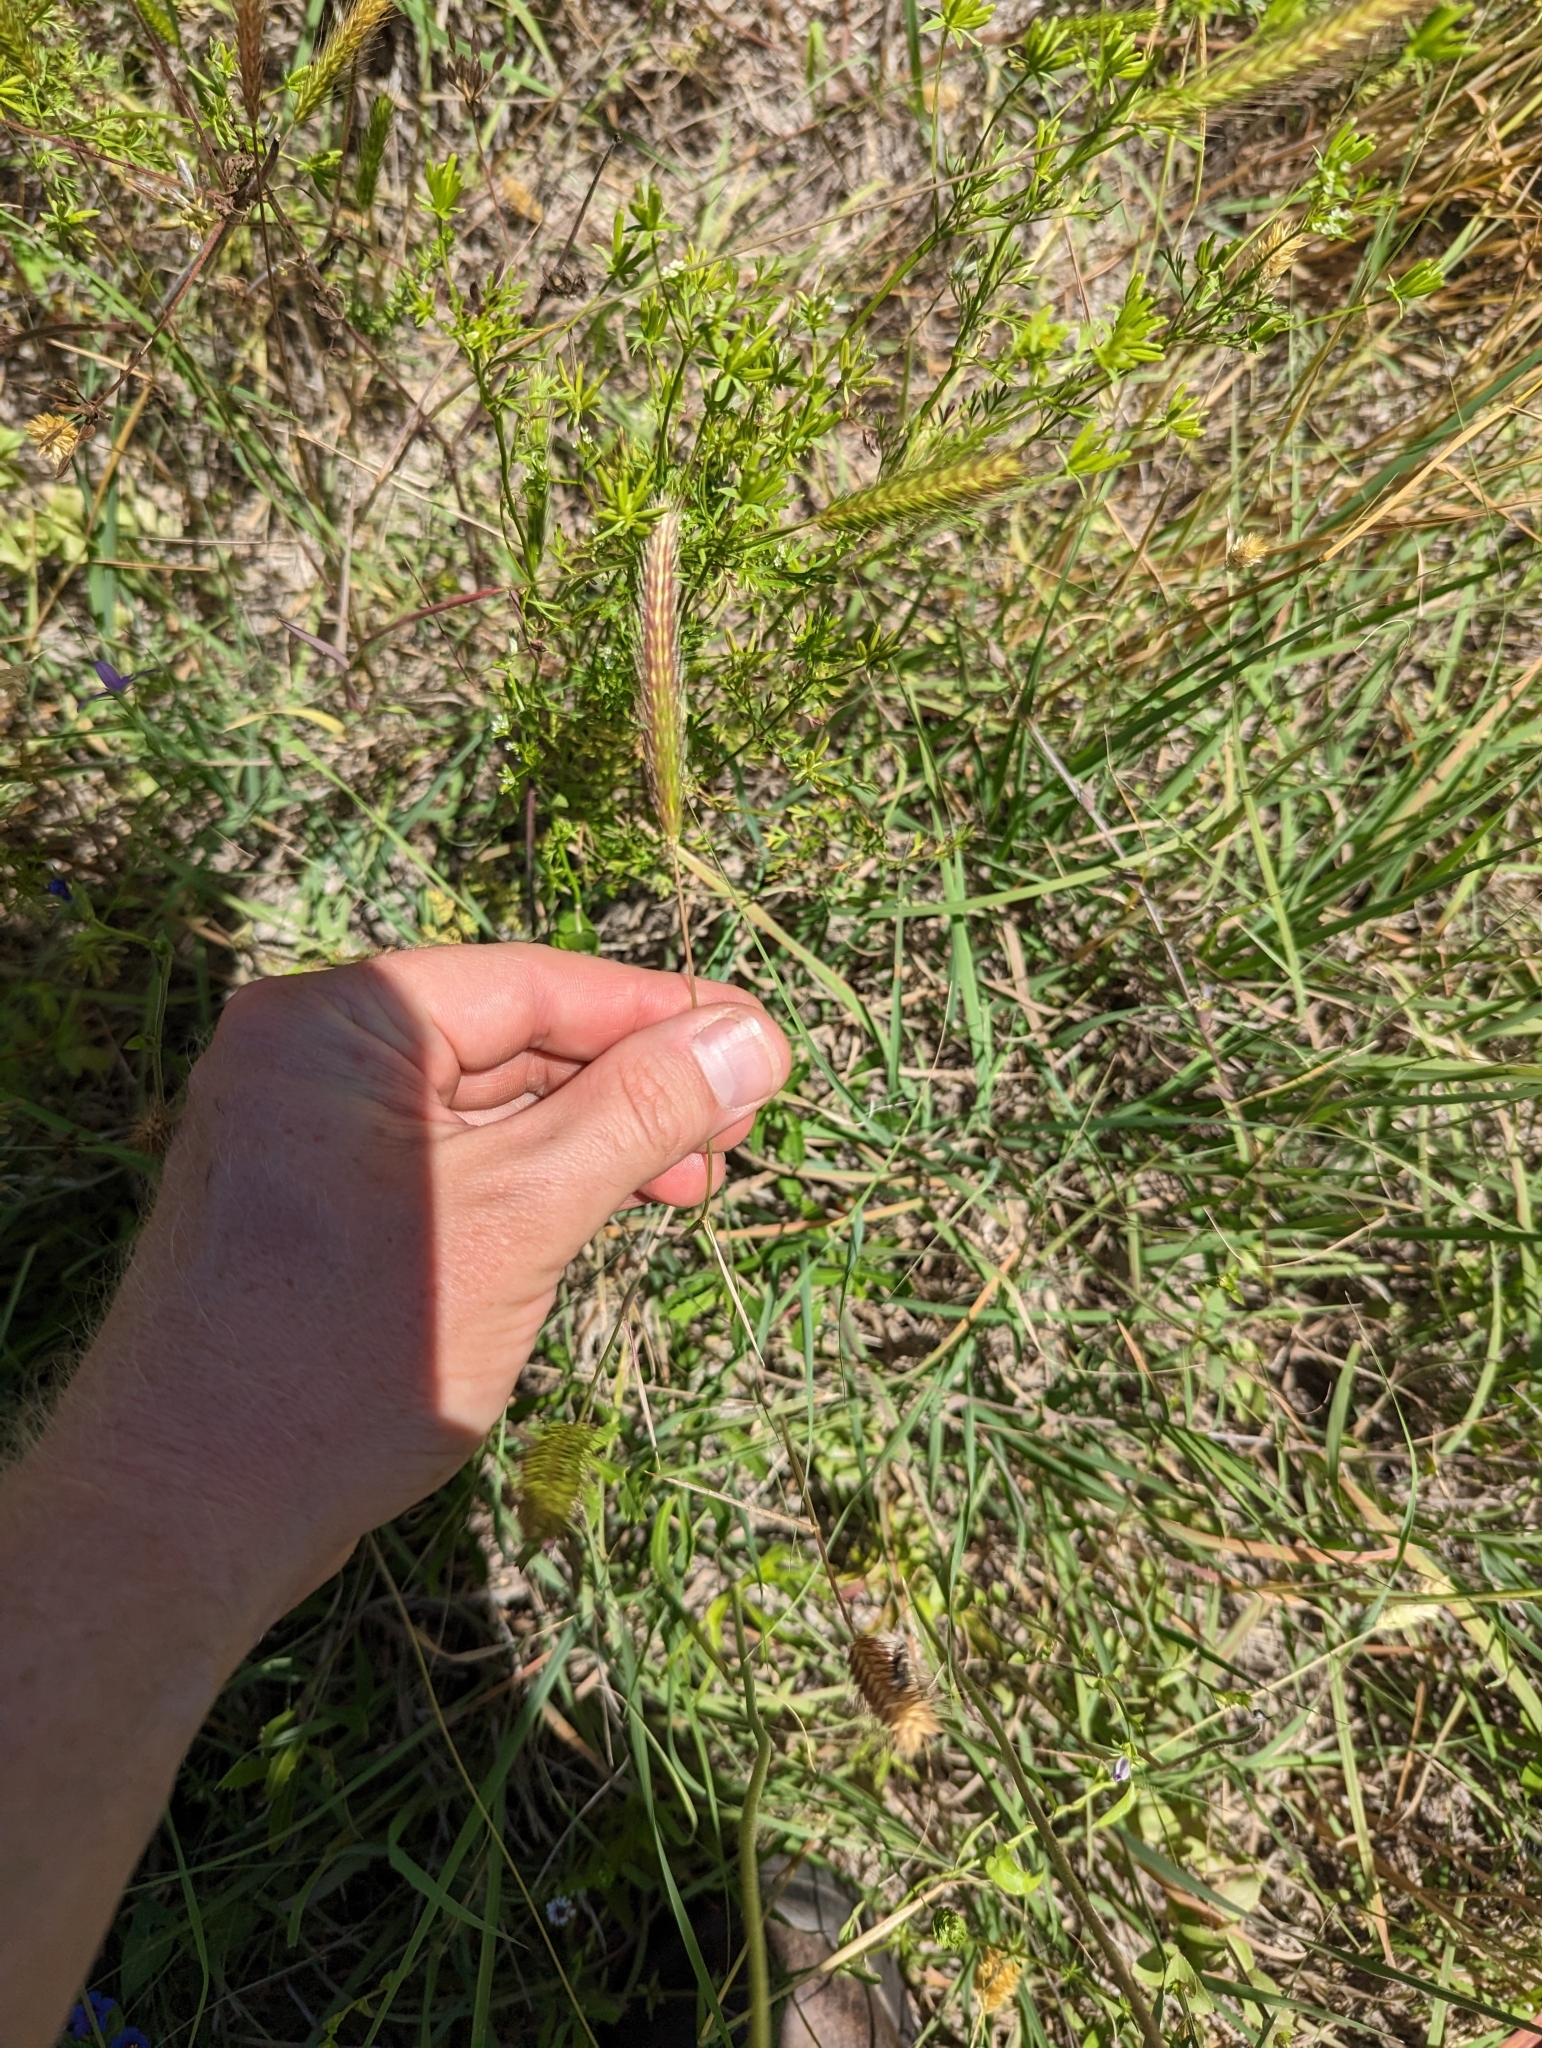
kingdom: Plantae
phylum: Tracheophyta
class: Liliopsida
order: Poales
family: Poaceae
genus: Hordeum
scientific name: Hordeum pusillum
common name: Little barley
